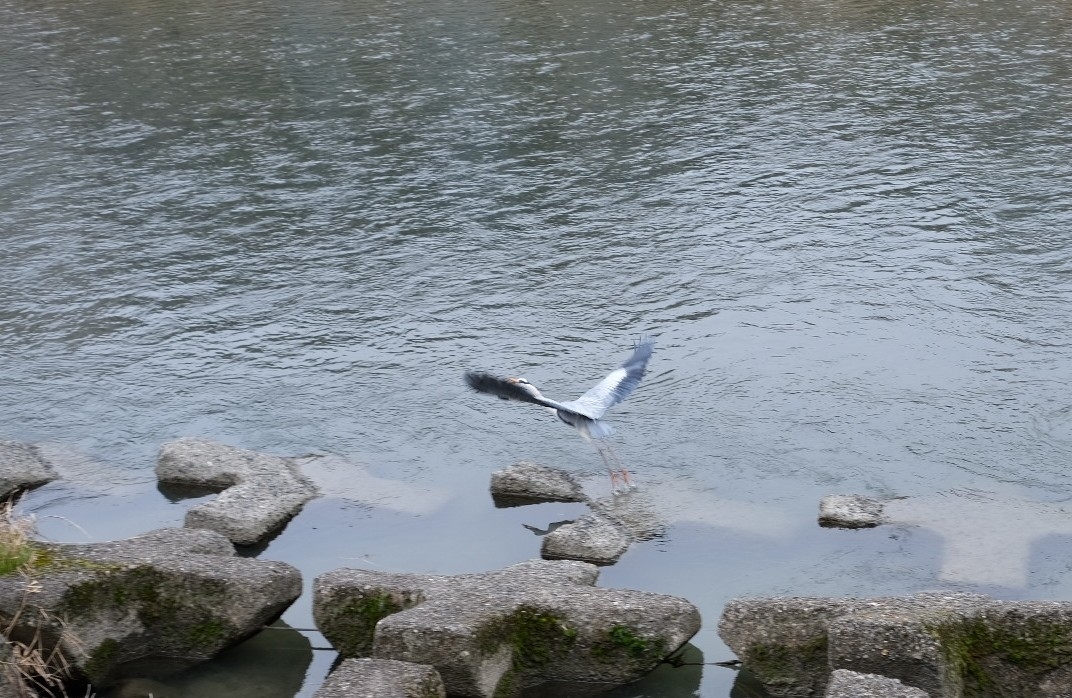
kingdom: Animalia
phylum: Chordata
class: Aves
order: Pelecaniformes
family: Ardeidae
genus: Ardea
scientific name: Ardea cinerea
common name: Grey heron
